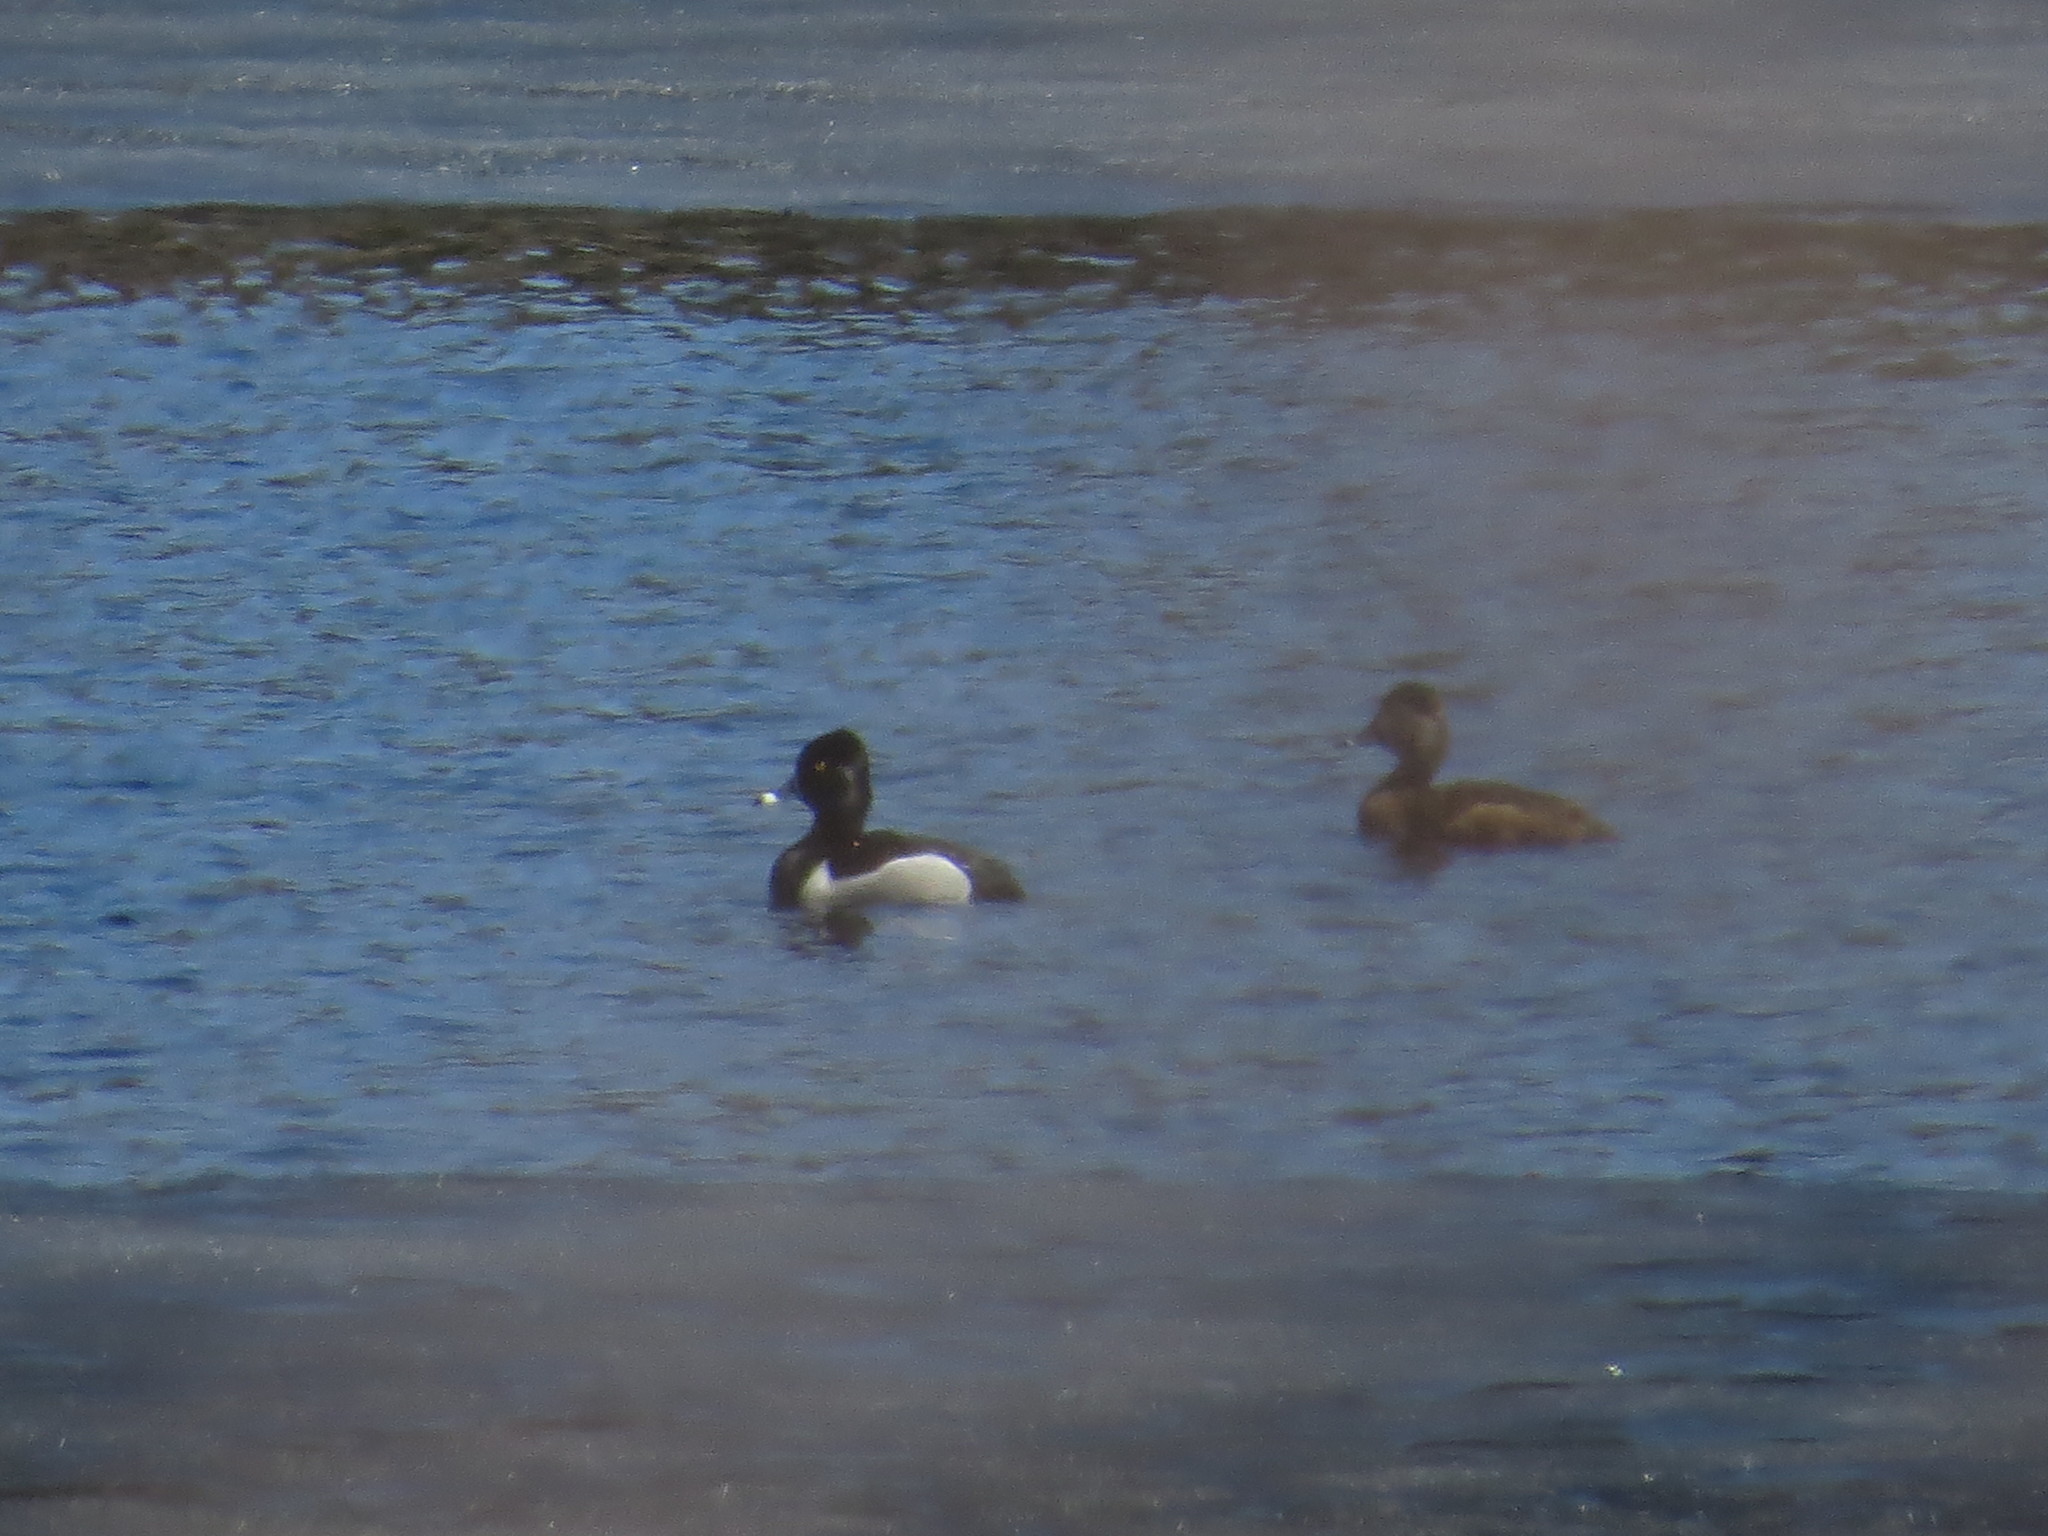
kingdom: Animalia
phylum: Chordata
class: Aves
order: Anseriformes
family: Anatidae
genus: Aythya
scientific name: Aythya collaris
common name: Ring-necked duck
